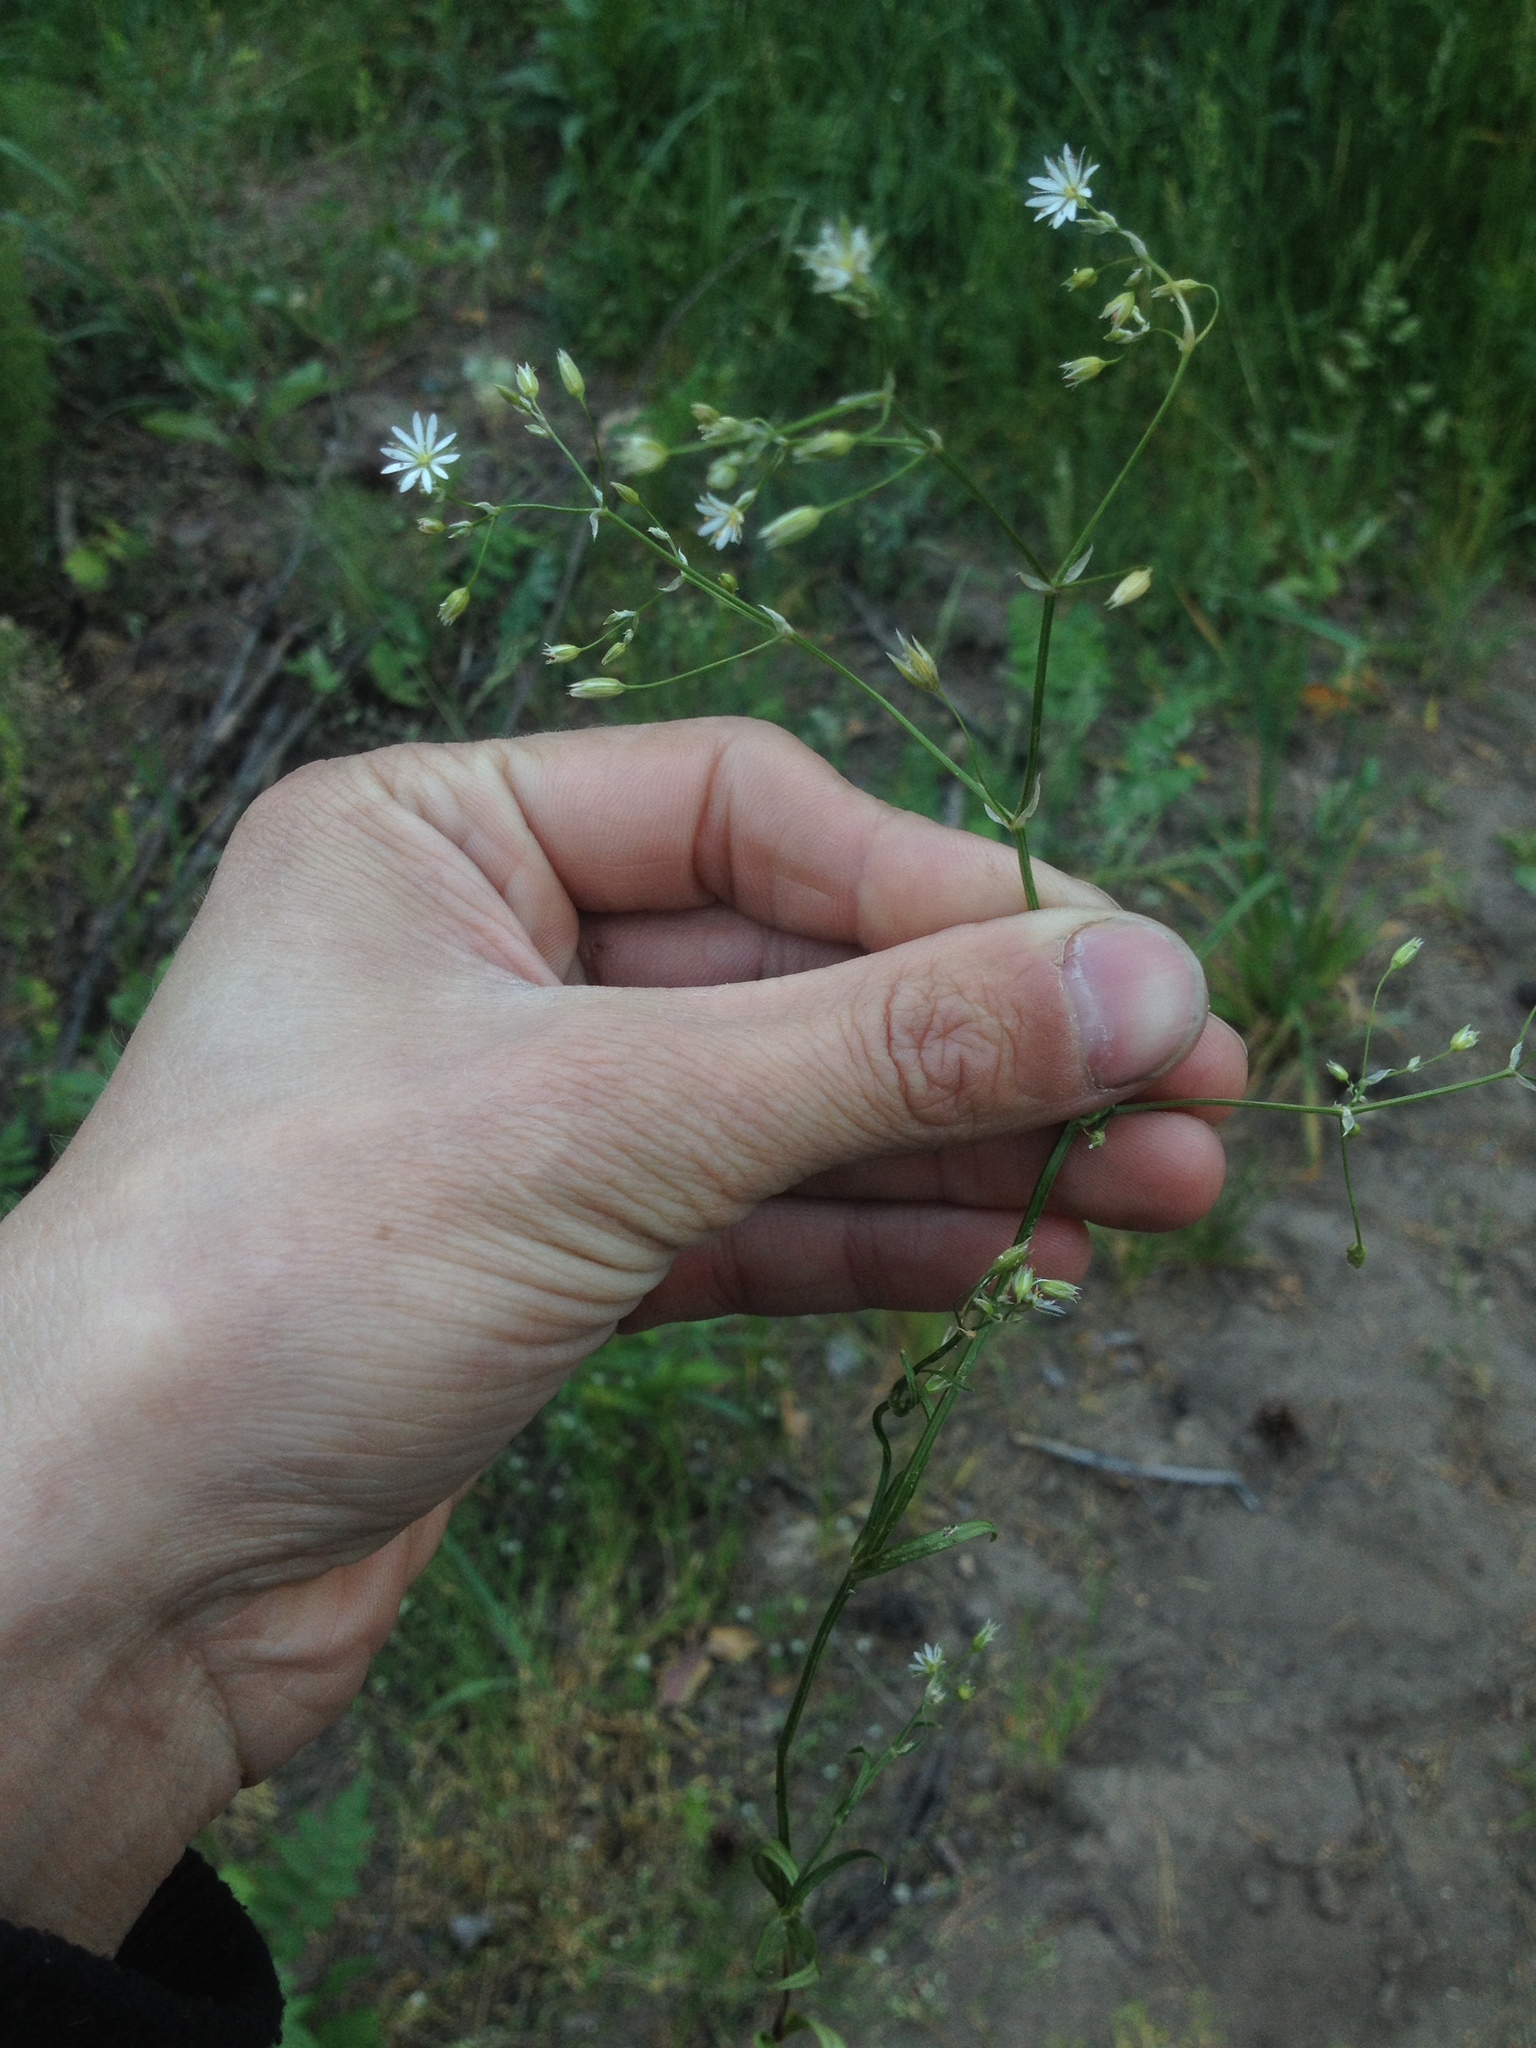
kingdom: Plantae
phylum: Tracheophyta
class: Magnoliopsida
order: Caryophyllales
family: Caryophyllaceae
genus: Stellaria
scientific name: Stellaria graminea
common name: Grass-like starwort
